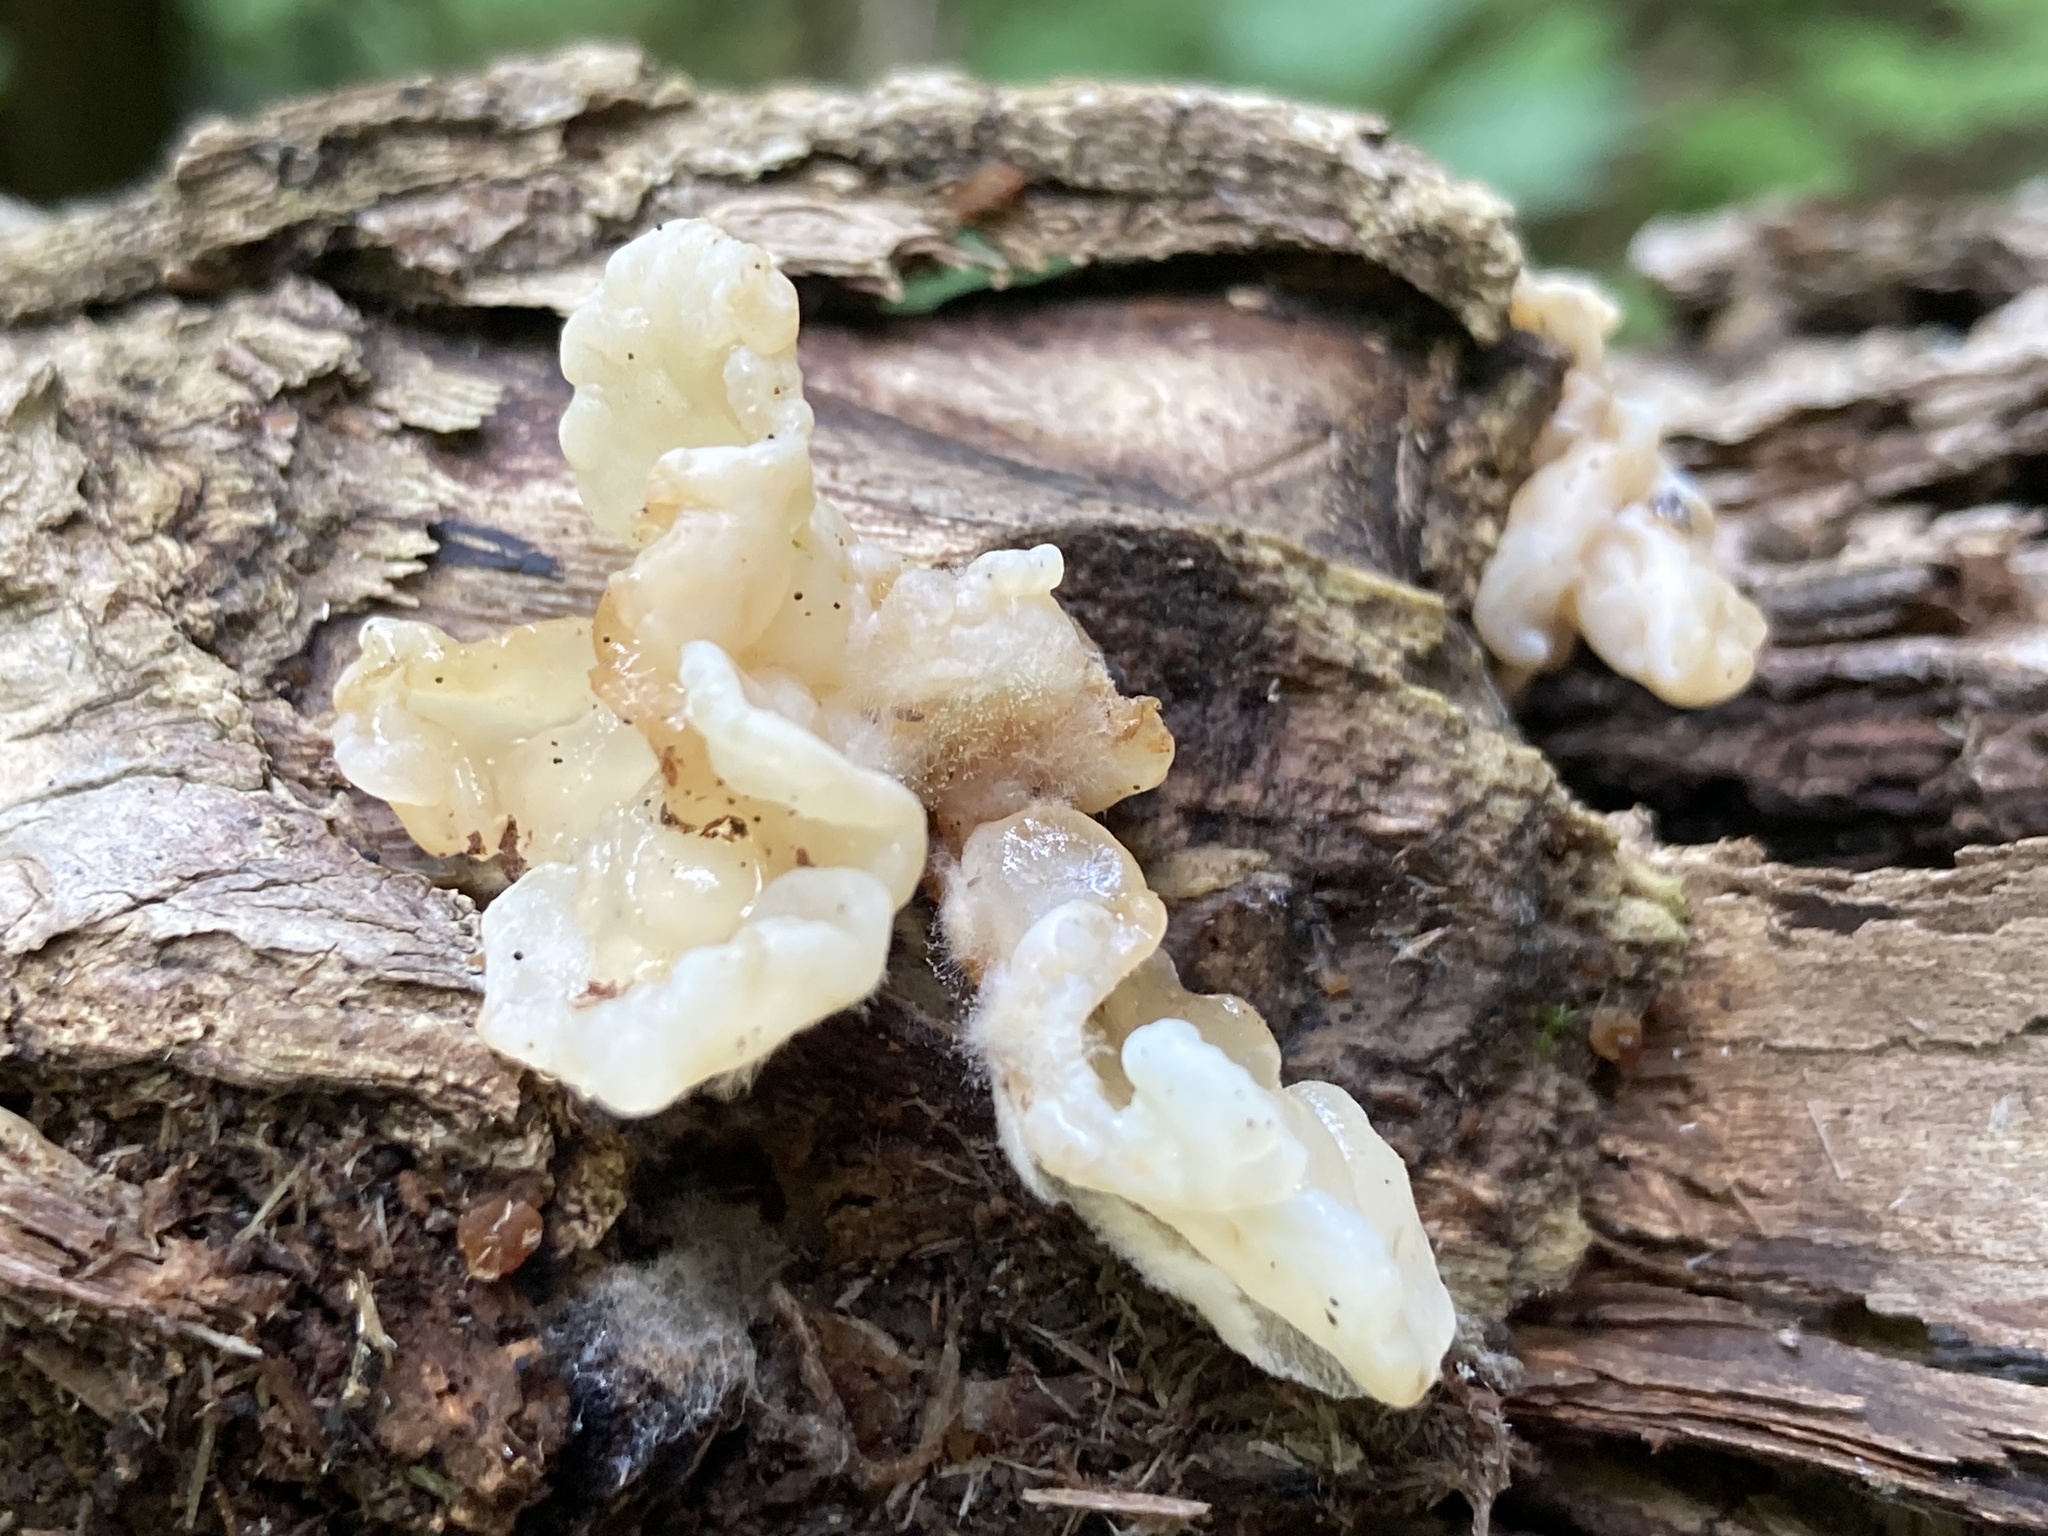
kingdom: Fungi
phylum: Basidiomycota
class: Agaricomycetes
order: Auriculariales
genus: Ductifera
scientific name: Ductifera pululahuana
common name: White jelly fungus
